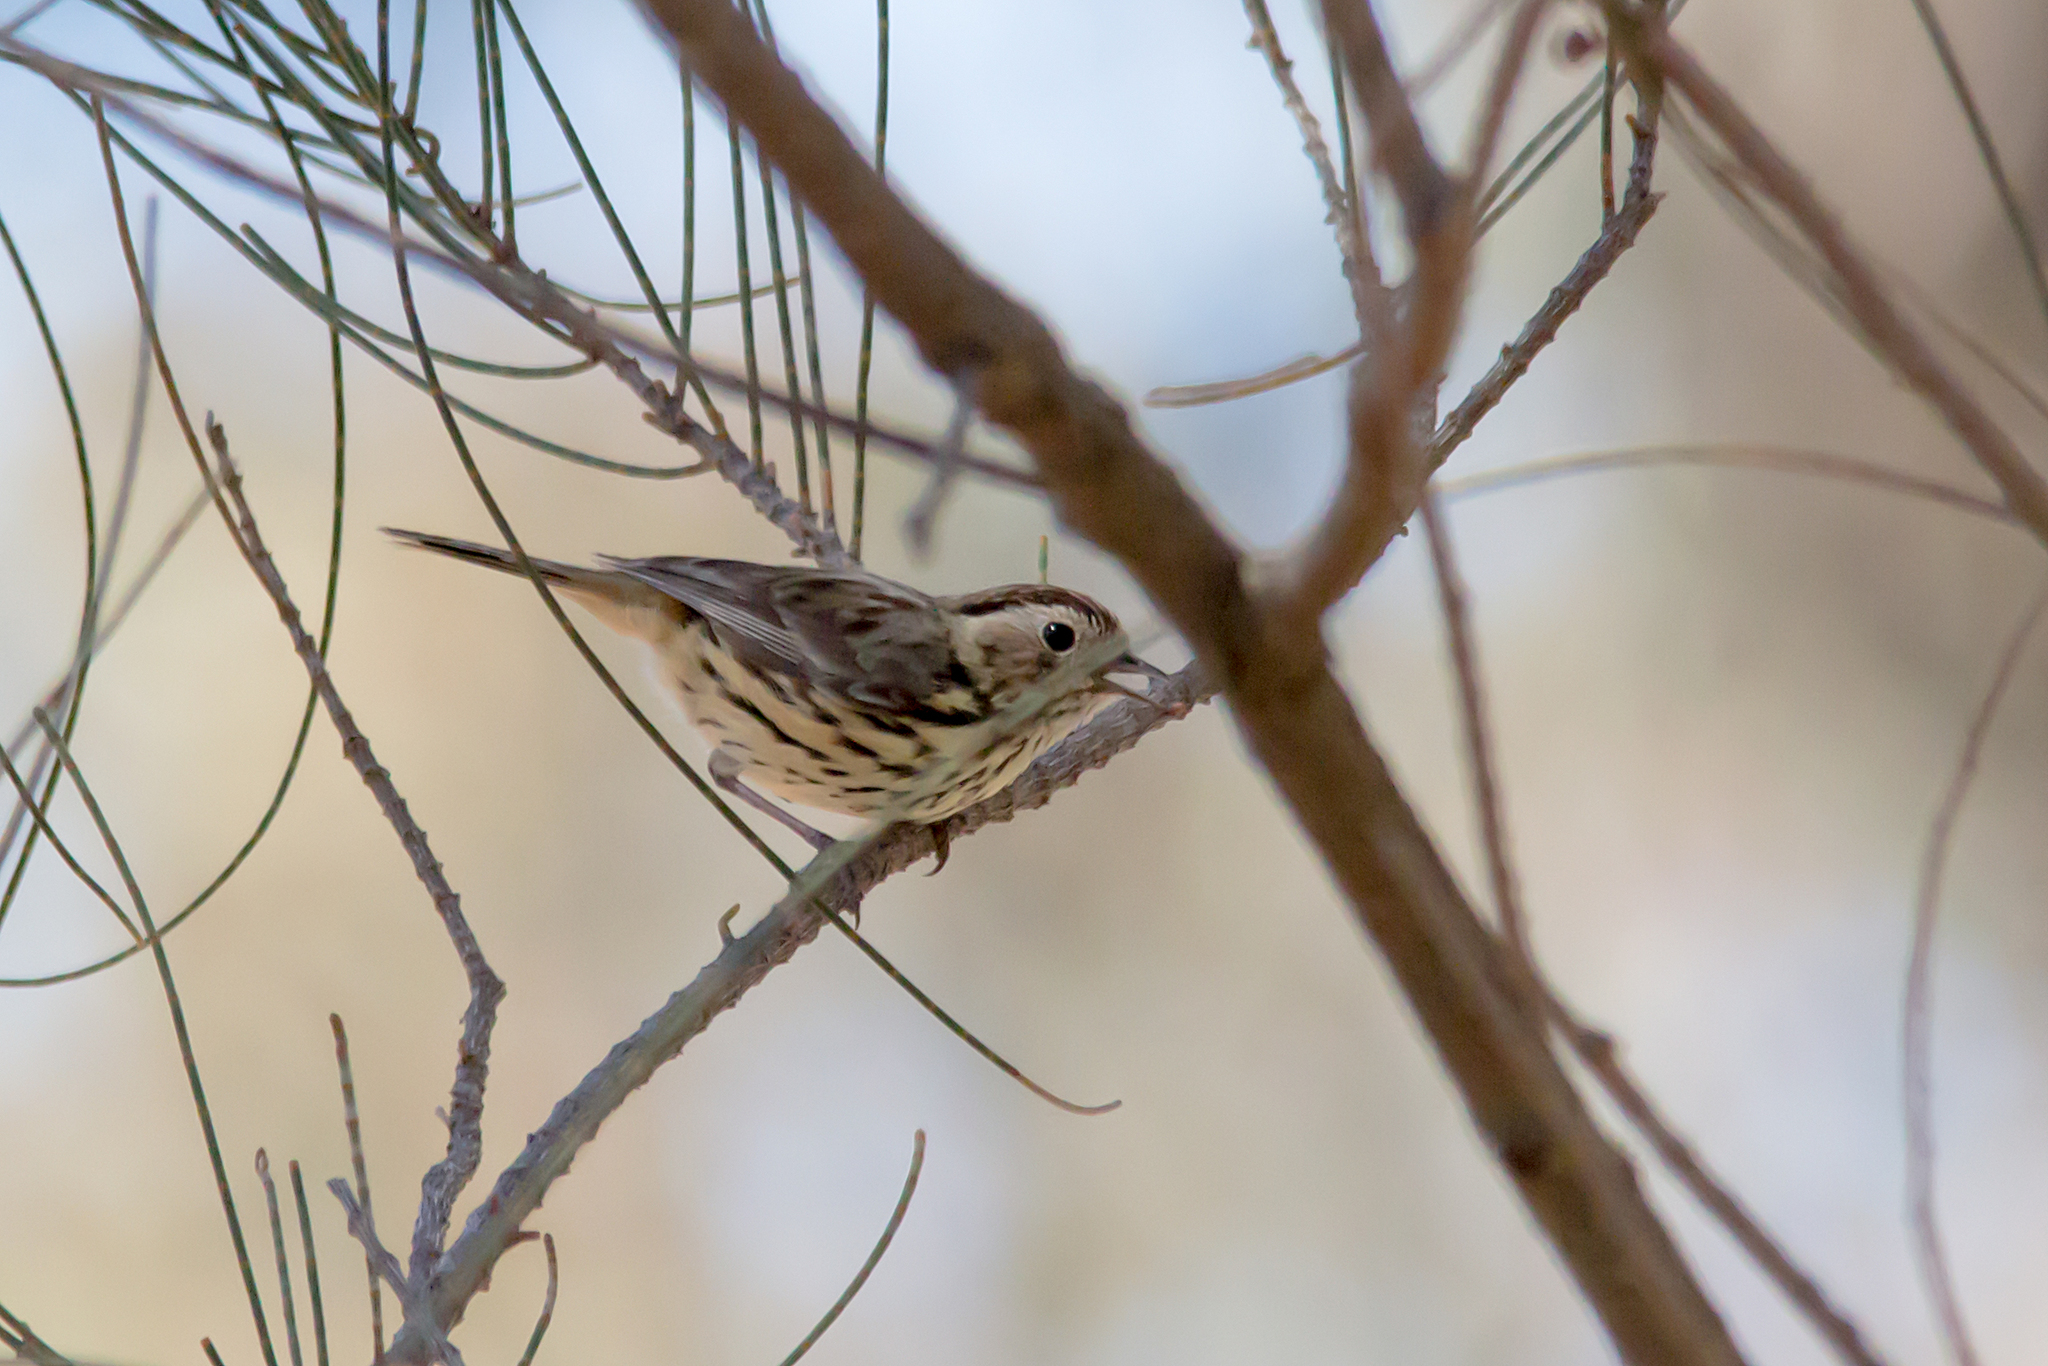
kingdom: Animalia
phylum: Chordata
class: Aves
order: Passeriformes
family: Acanthizidae
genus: Pyrrholaemus
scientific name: Pyrrholaemus sagittatus
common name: Speckled warbler
